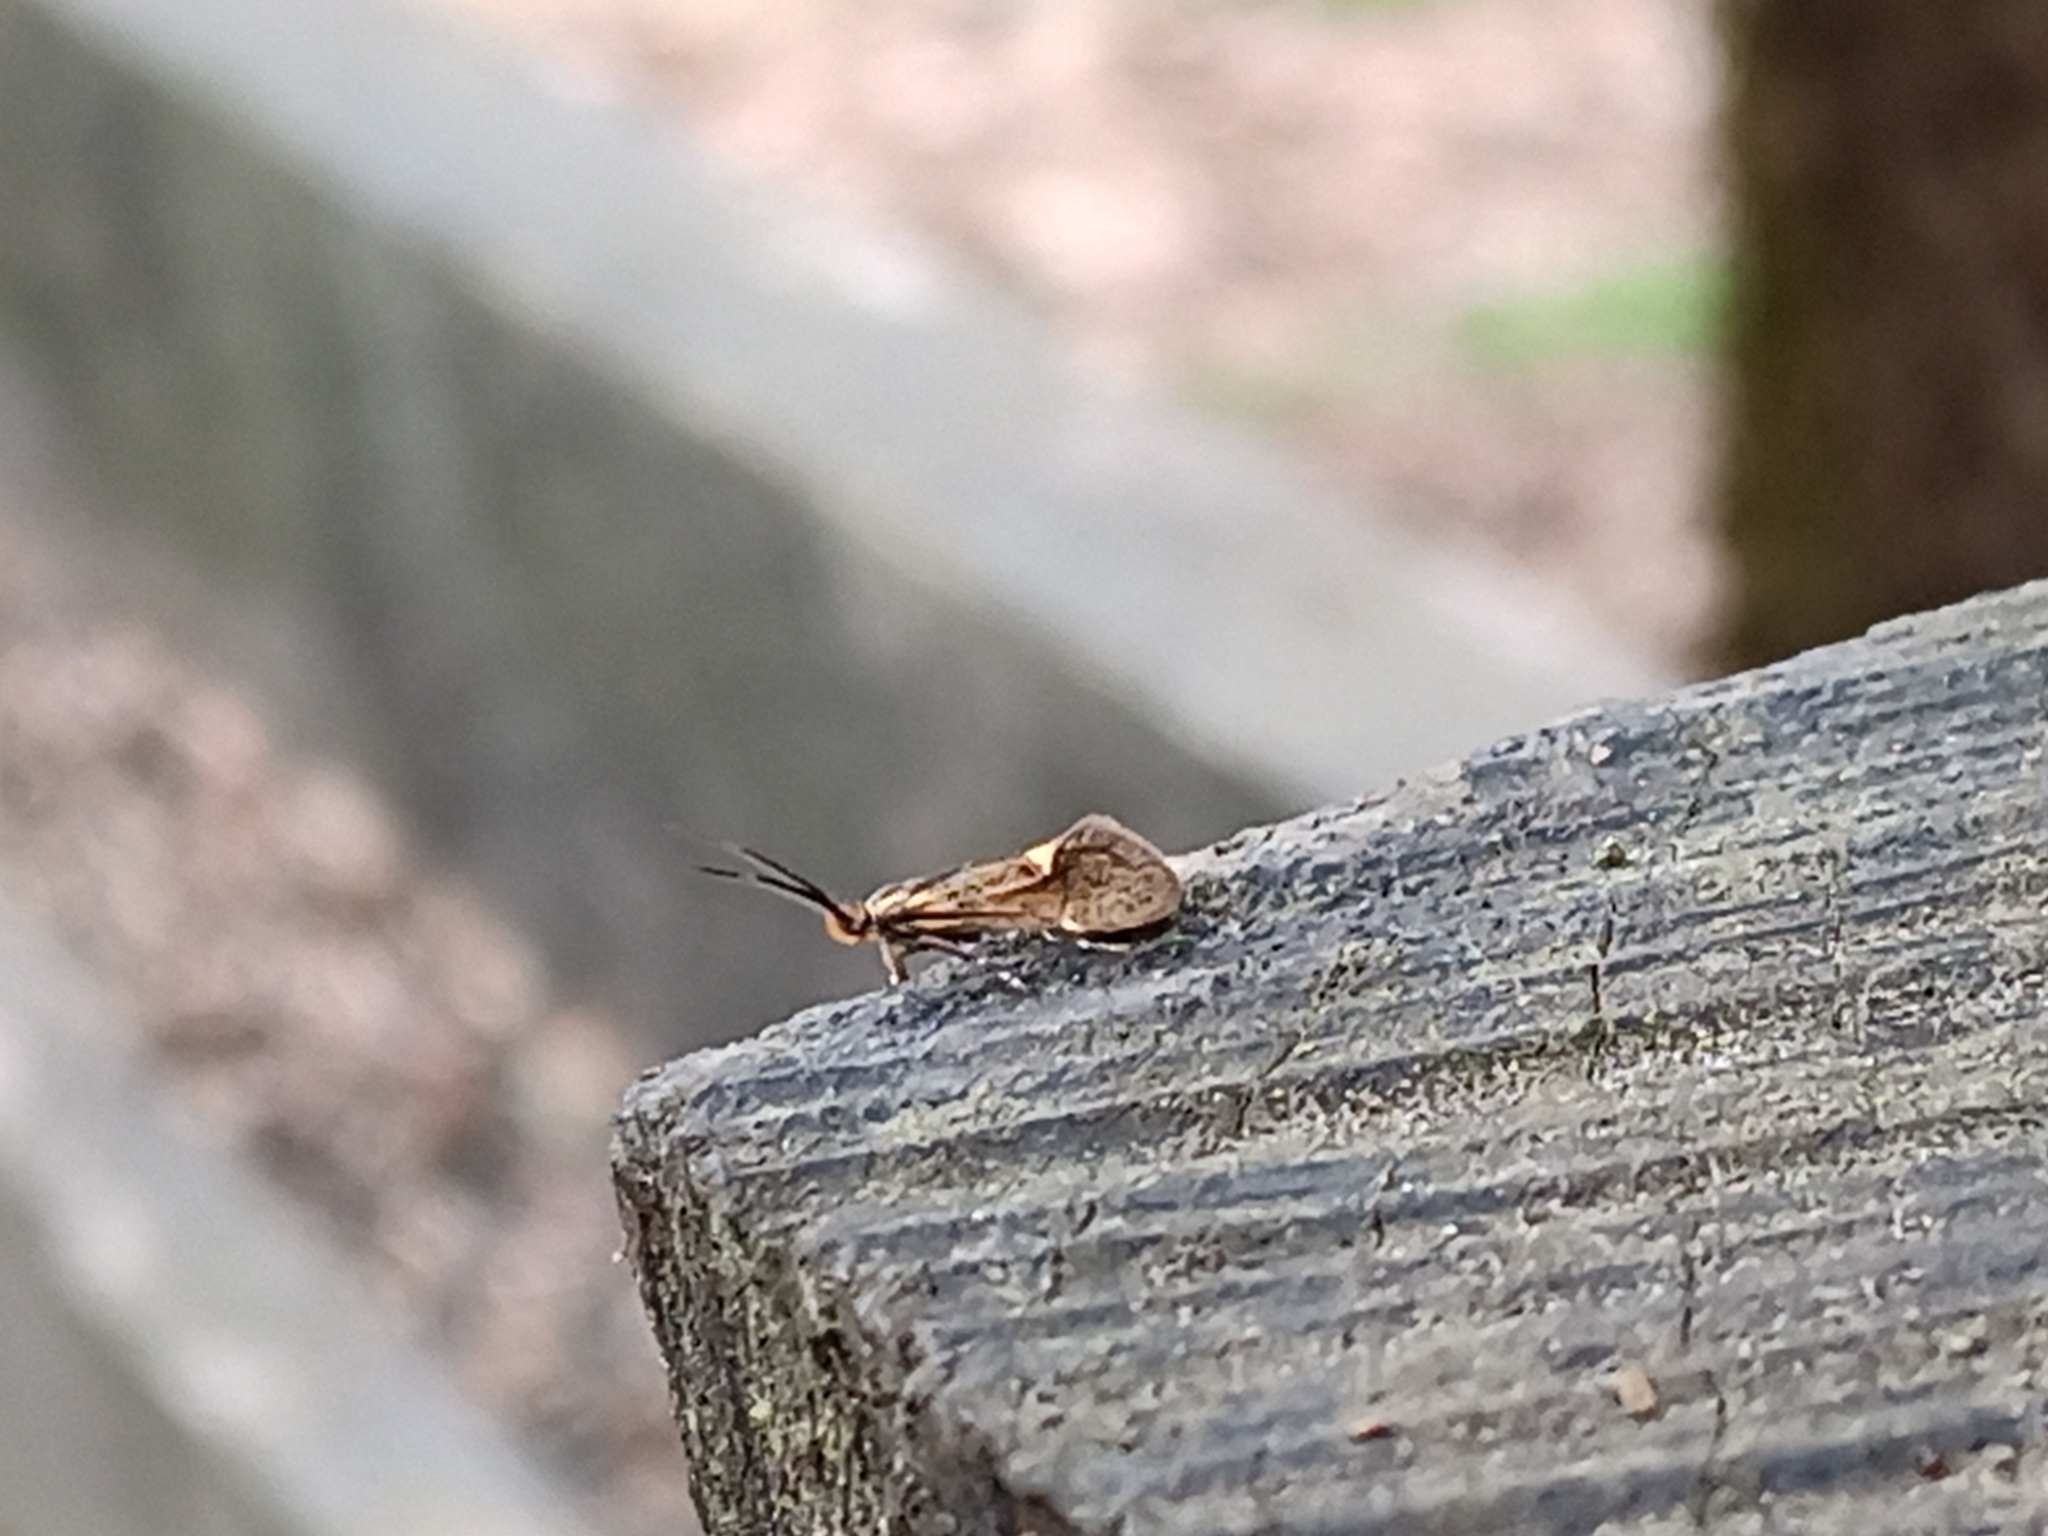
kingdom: Animalia
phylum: Arthropoda
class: Insecta
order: Lepidoptera
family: Oecophoridae
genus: Dafa
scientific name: Dafa Esperia sulphurella
